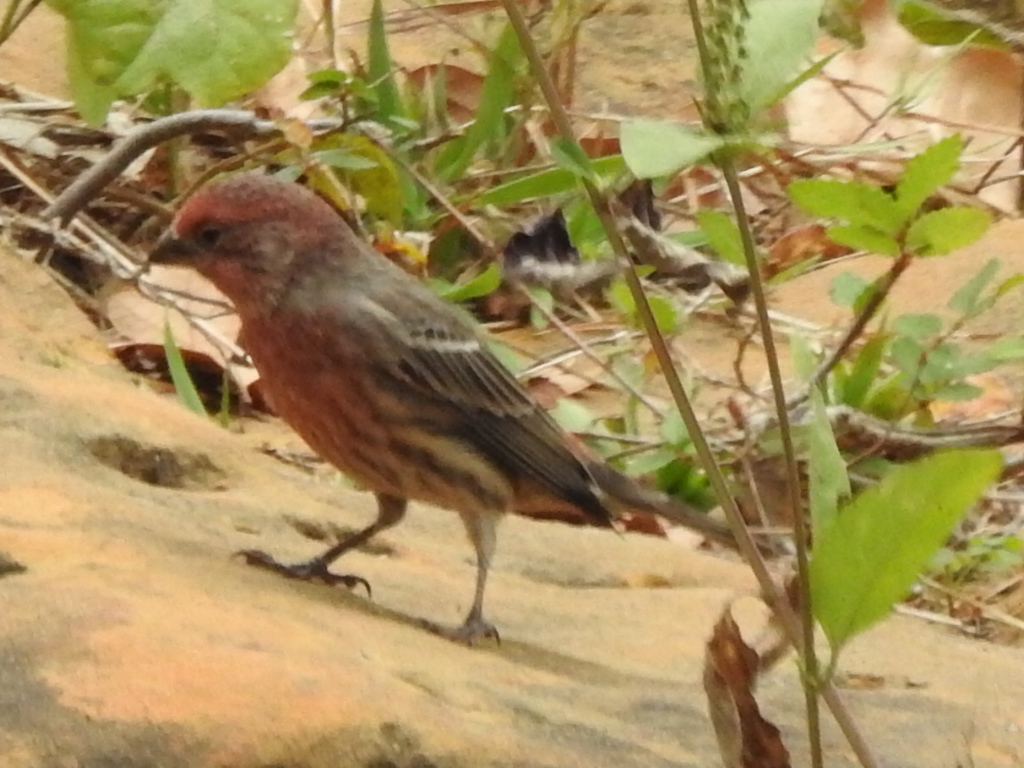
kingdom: Animalia
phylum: Chordata
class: Aves
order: Passeriformes
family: Fringillidae
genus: Haemorhous
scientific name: Haemorhous mexicanus
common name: House finch
